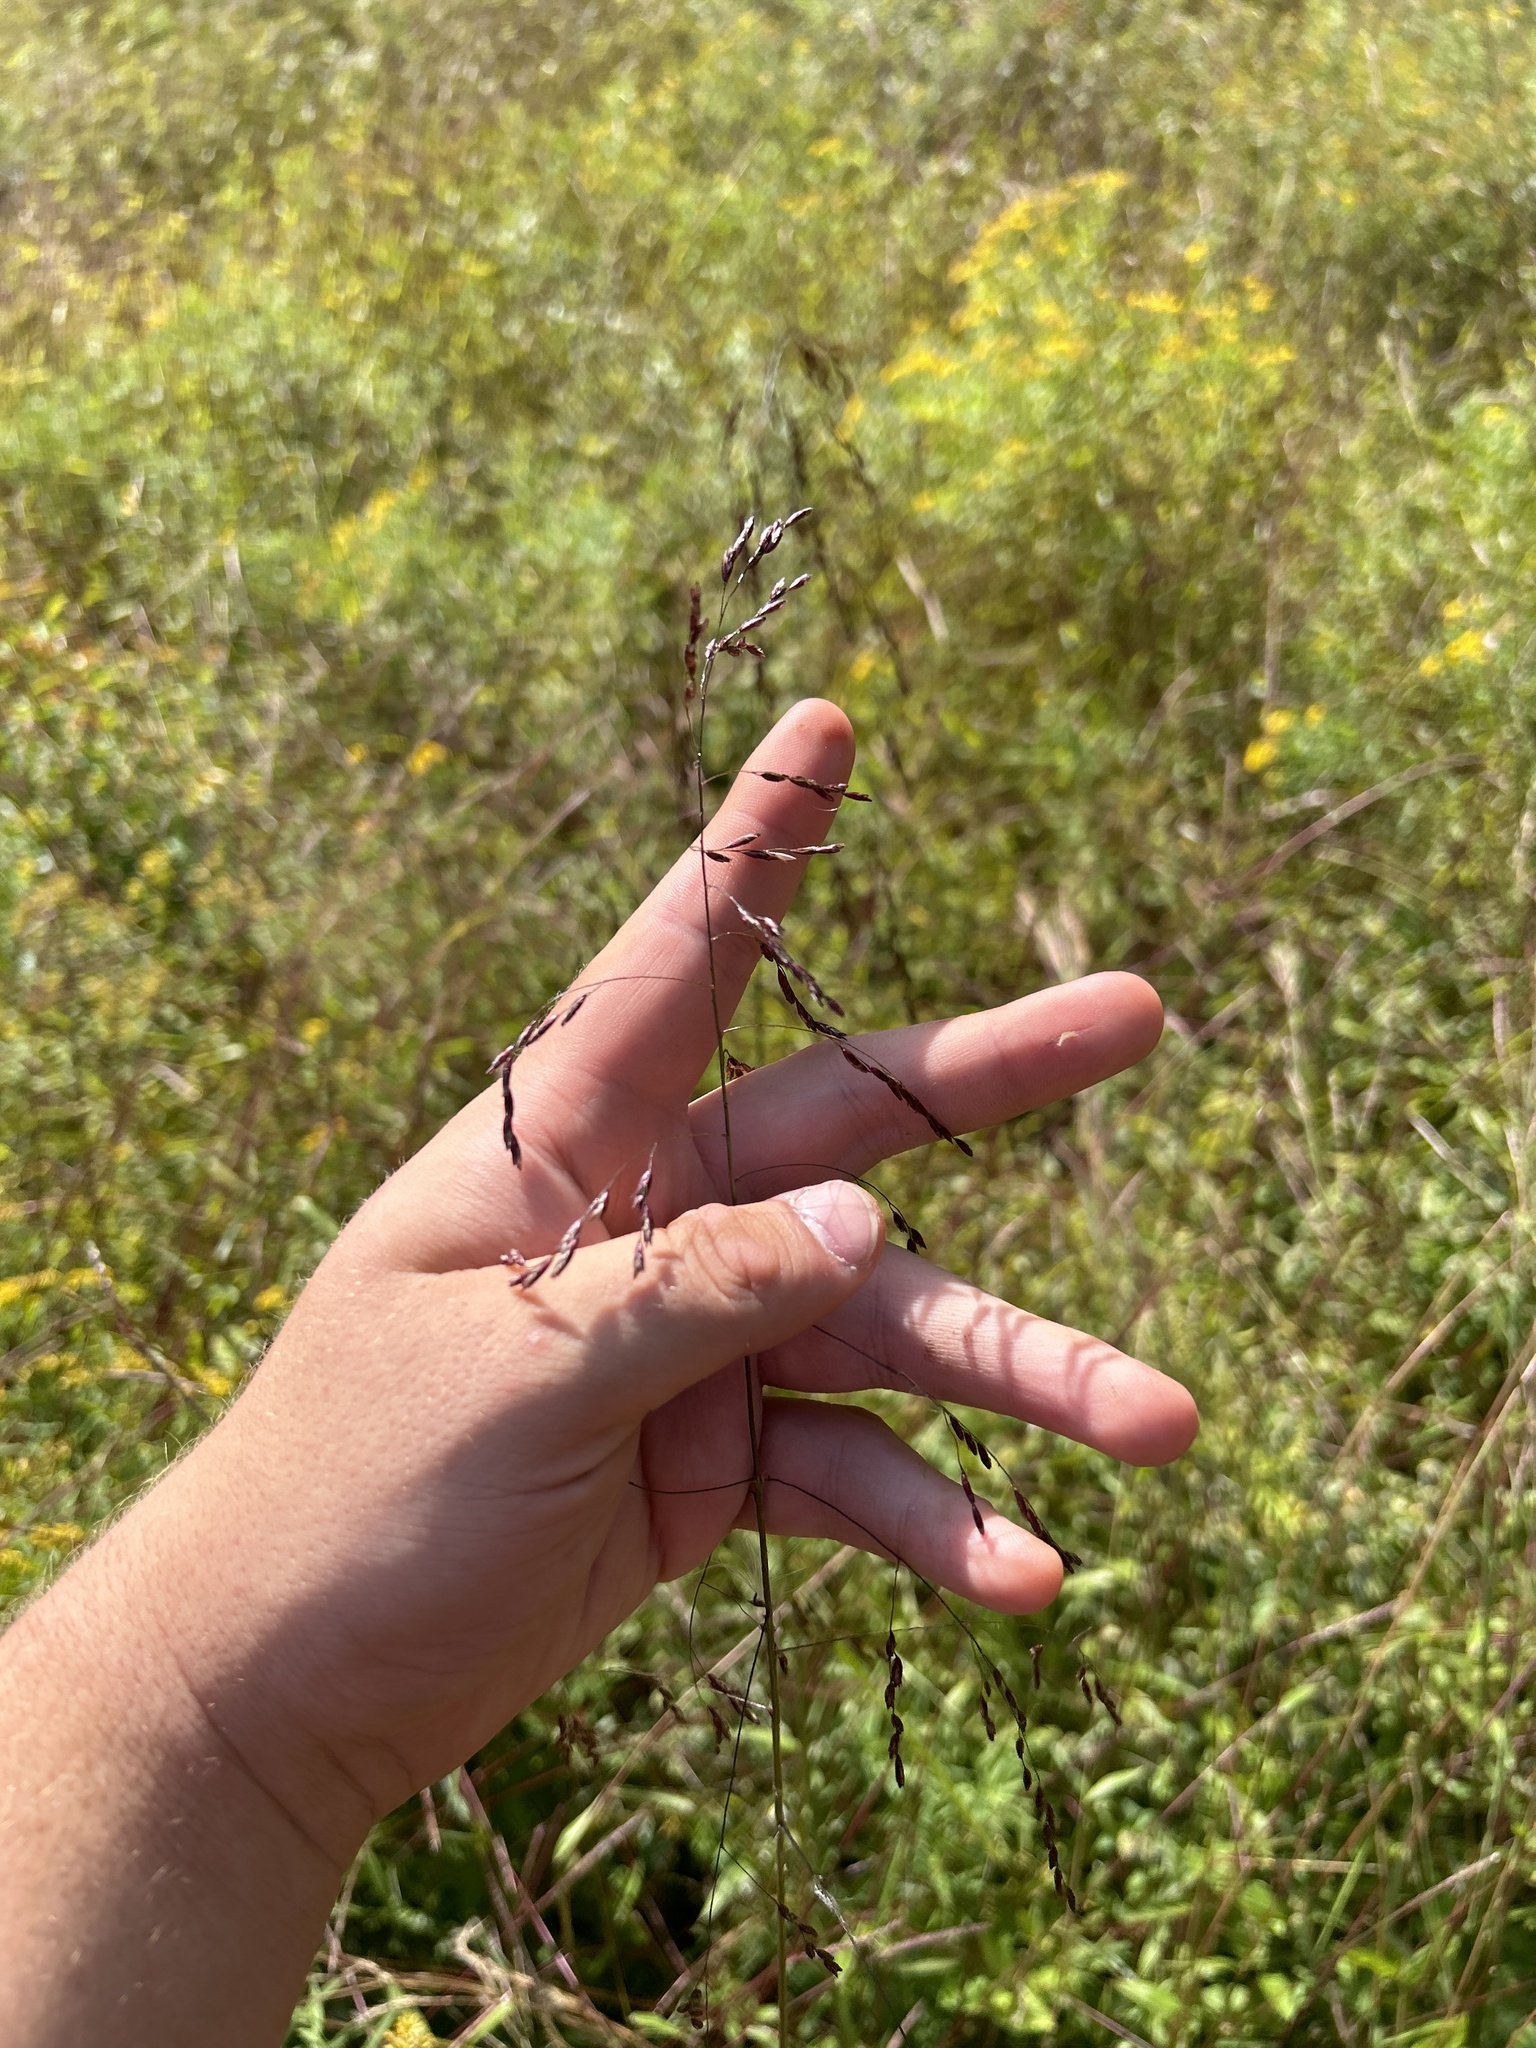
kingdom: Plantae
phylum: Tracheophyta
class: Liliopsida
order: Poales
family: Poaceae
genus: Tridens
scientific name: Tridens flavus
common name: Purpletop
